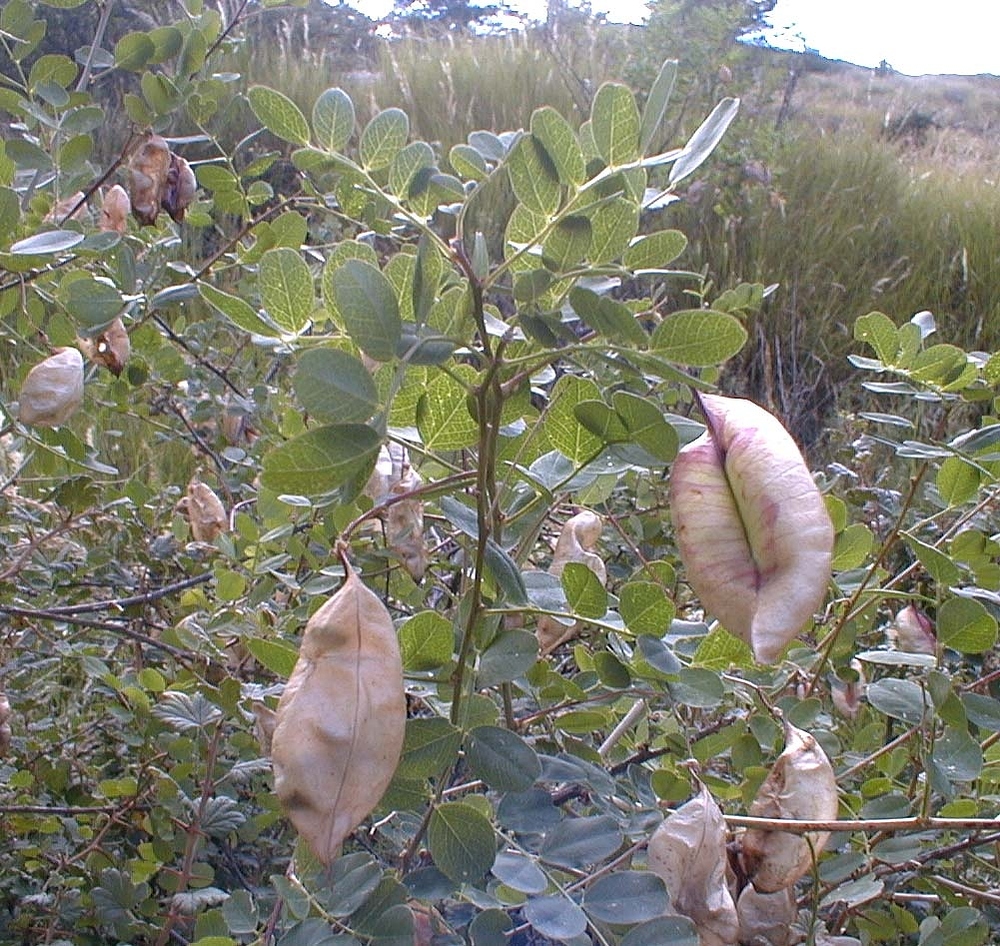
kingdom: Plantae
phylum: Tracheophyta
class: Magnoliopsida
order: Fabales
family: Fabaceae
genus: Colutea
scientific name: Colutea arborescens
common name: Bladder-senna
